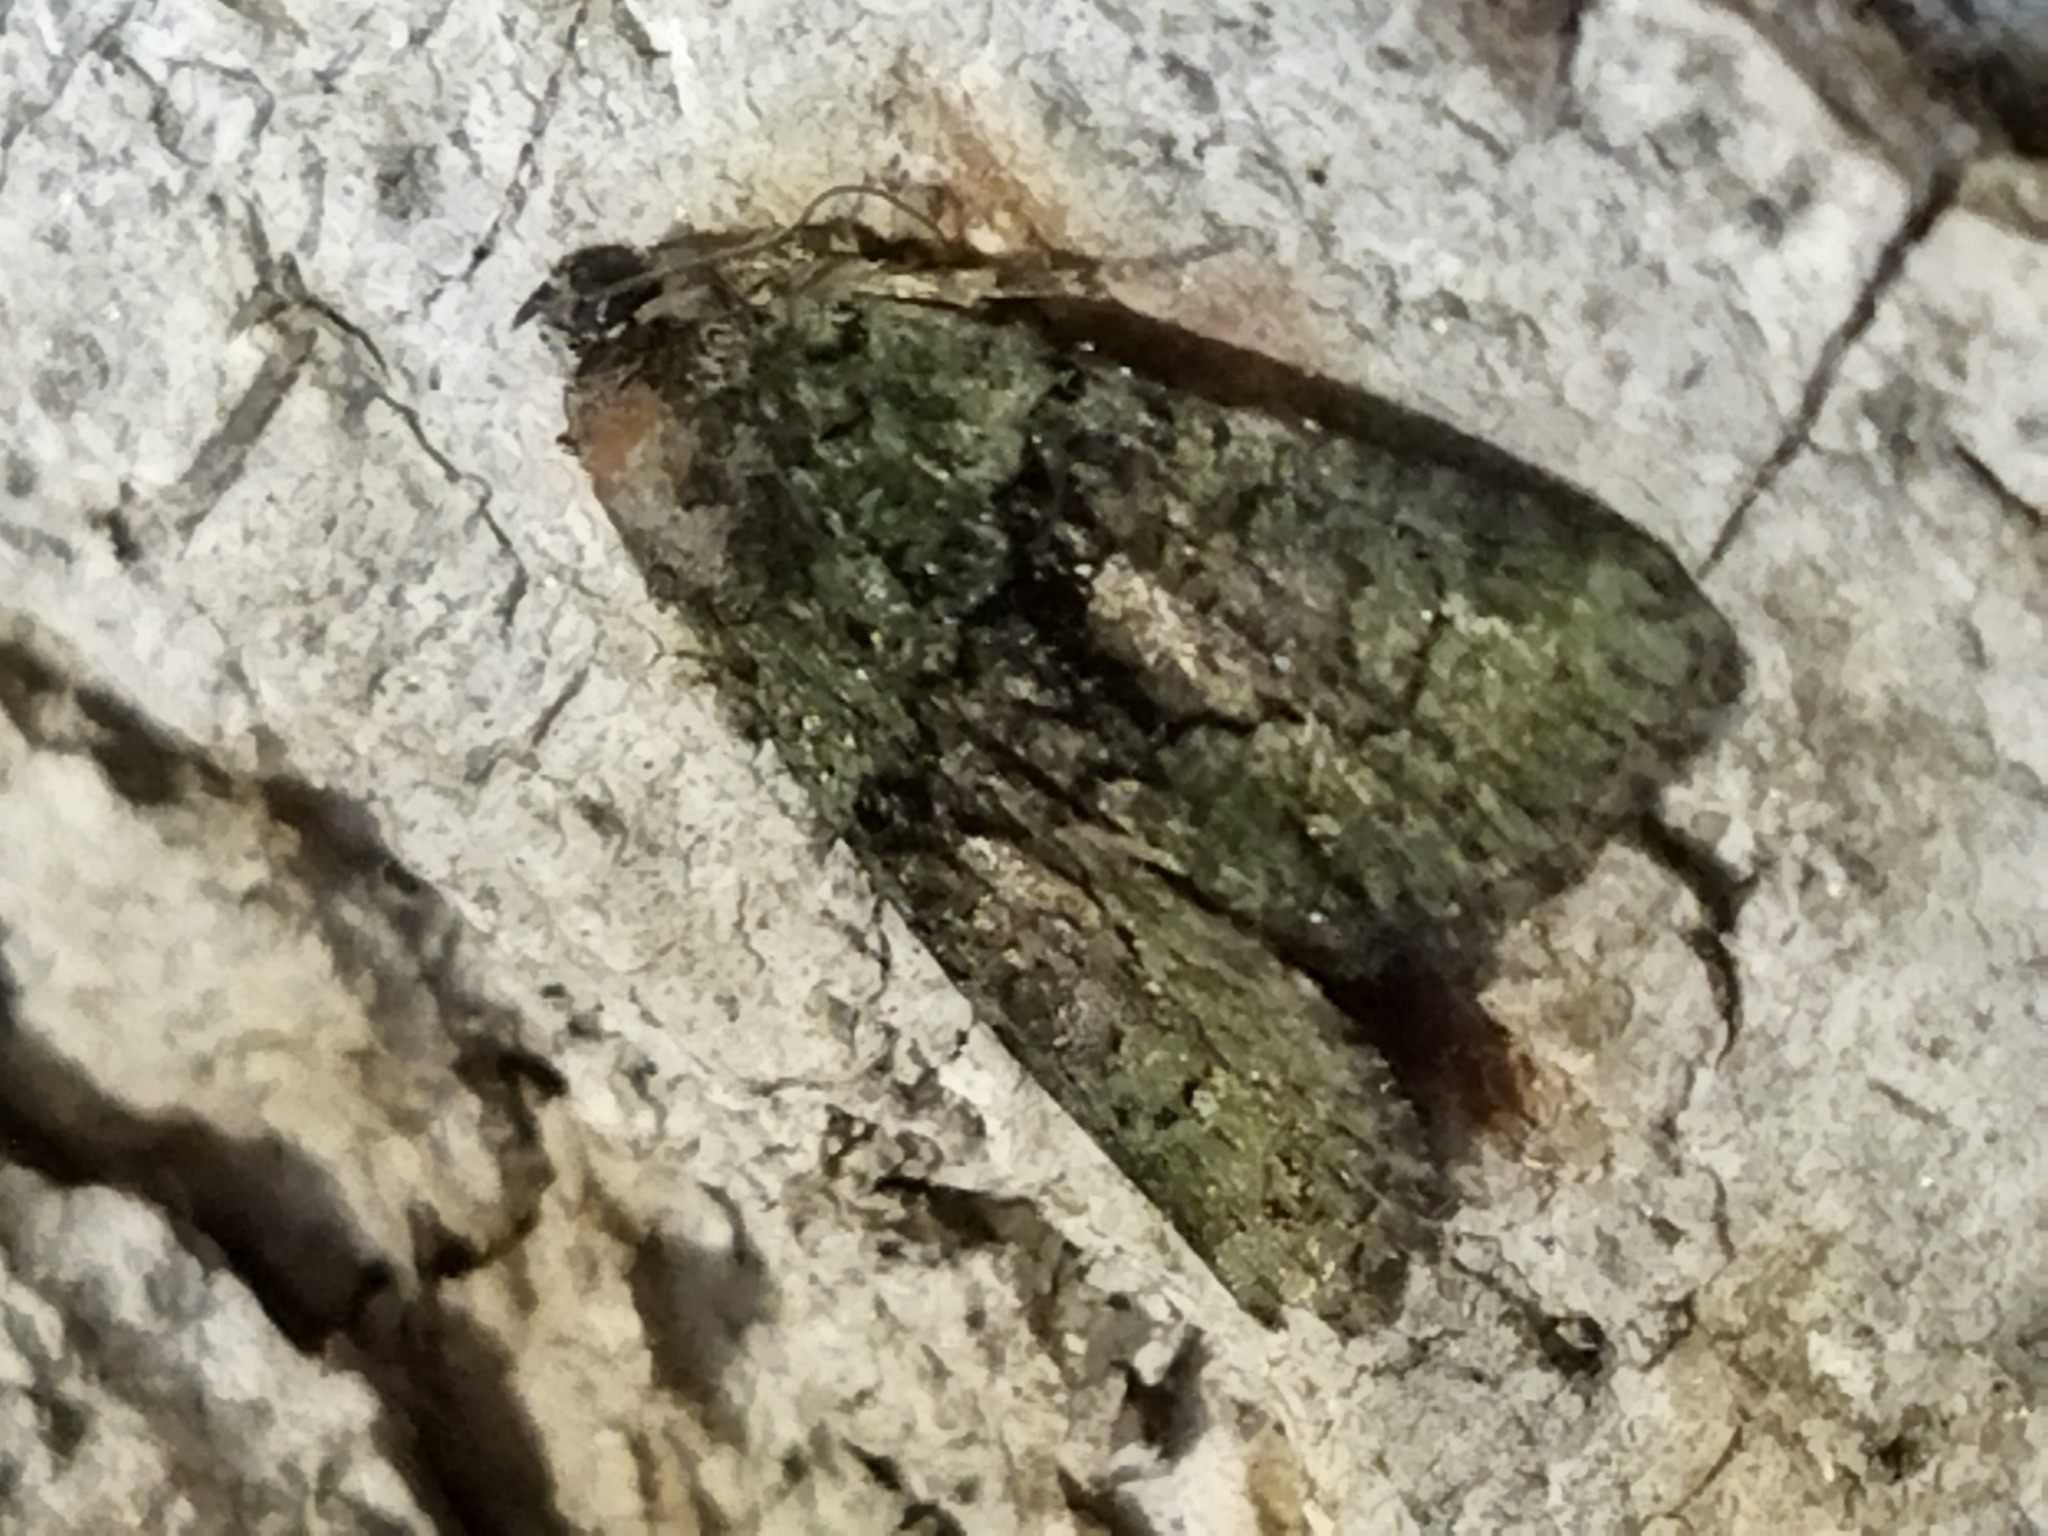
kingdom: Animalia
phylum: Arthropoda
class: Insecta
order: Lepidoptera
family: Noctuidae
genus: Cryphia
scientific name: Cryphia
